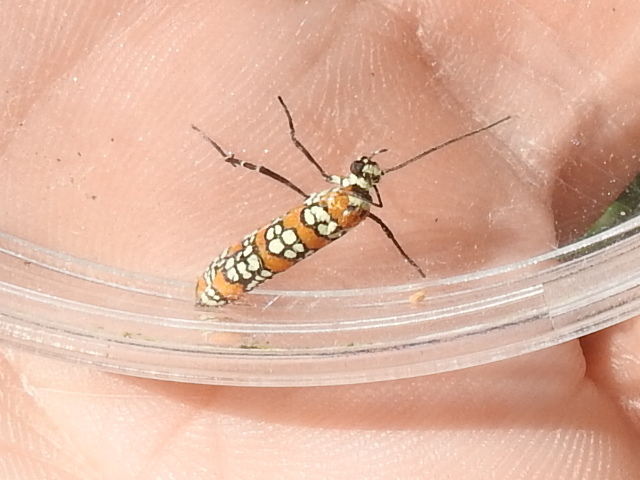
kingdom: Animalia
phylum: Arthropoda
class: Insecta
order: Lepidoptera
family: Attevidae
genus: Atteva
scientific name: Atteva punctella
